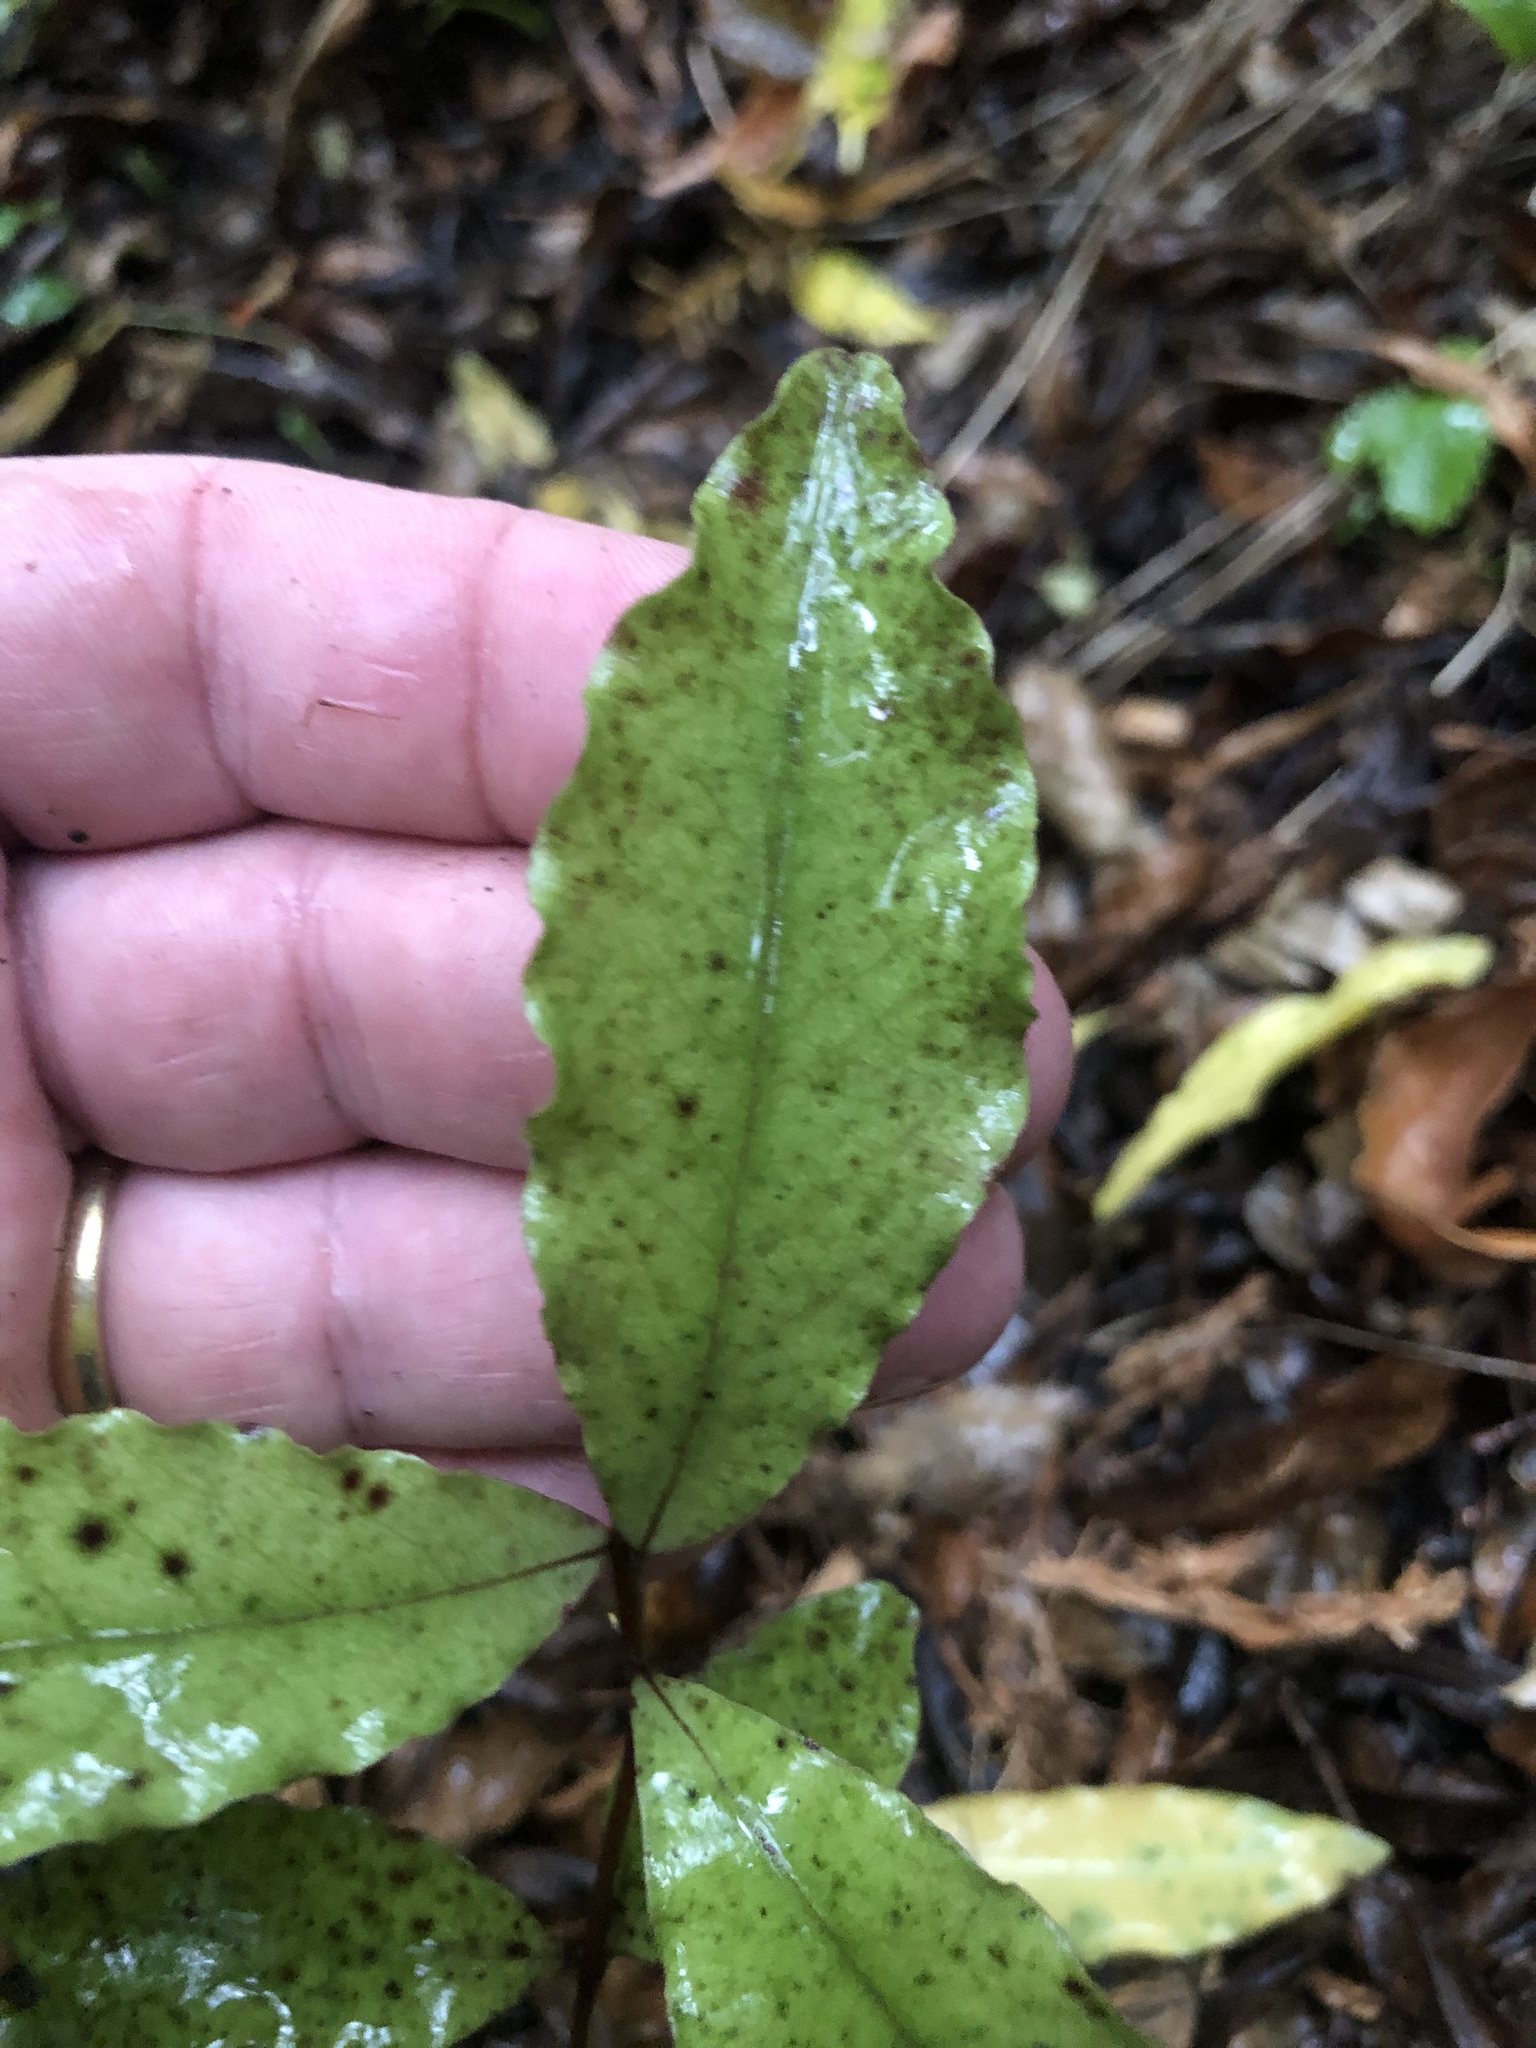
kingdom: Plantae
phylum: Tracheophyta
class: Magnoliopsida
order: Ericales
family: Primulaceae
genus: Myrsine
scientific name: Myrsine australis
